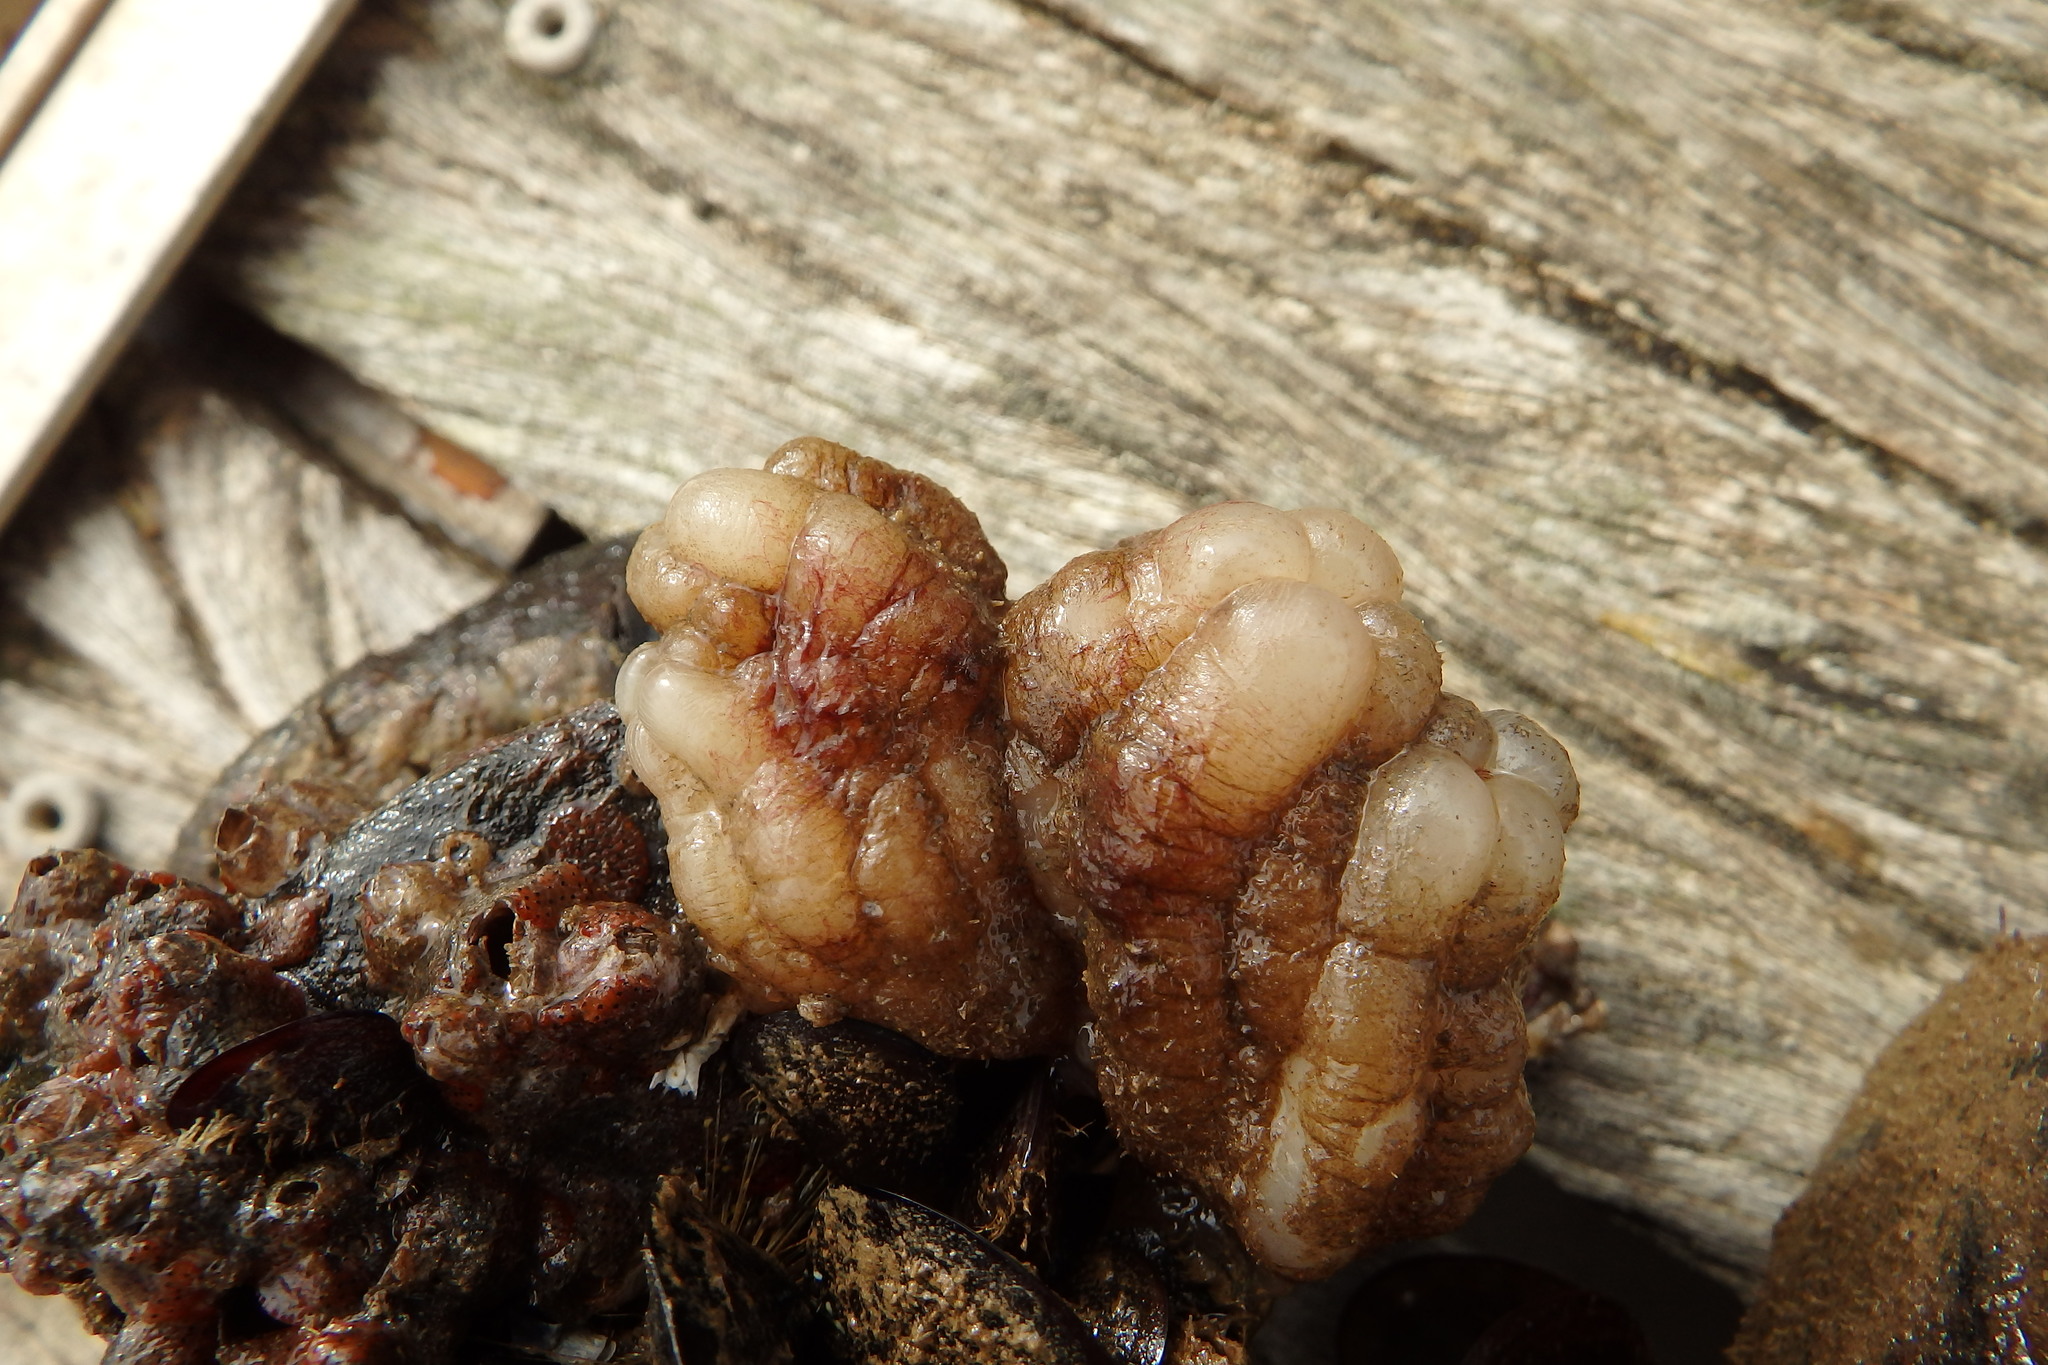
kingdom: Animalia
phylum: Chordata
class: Ascidiacea
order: Stolidobranchia
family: Styelidae
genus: Styela
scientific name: Styela plicata
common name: Pleated tunicate
